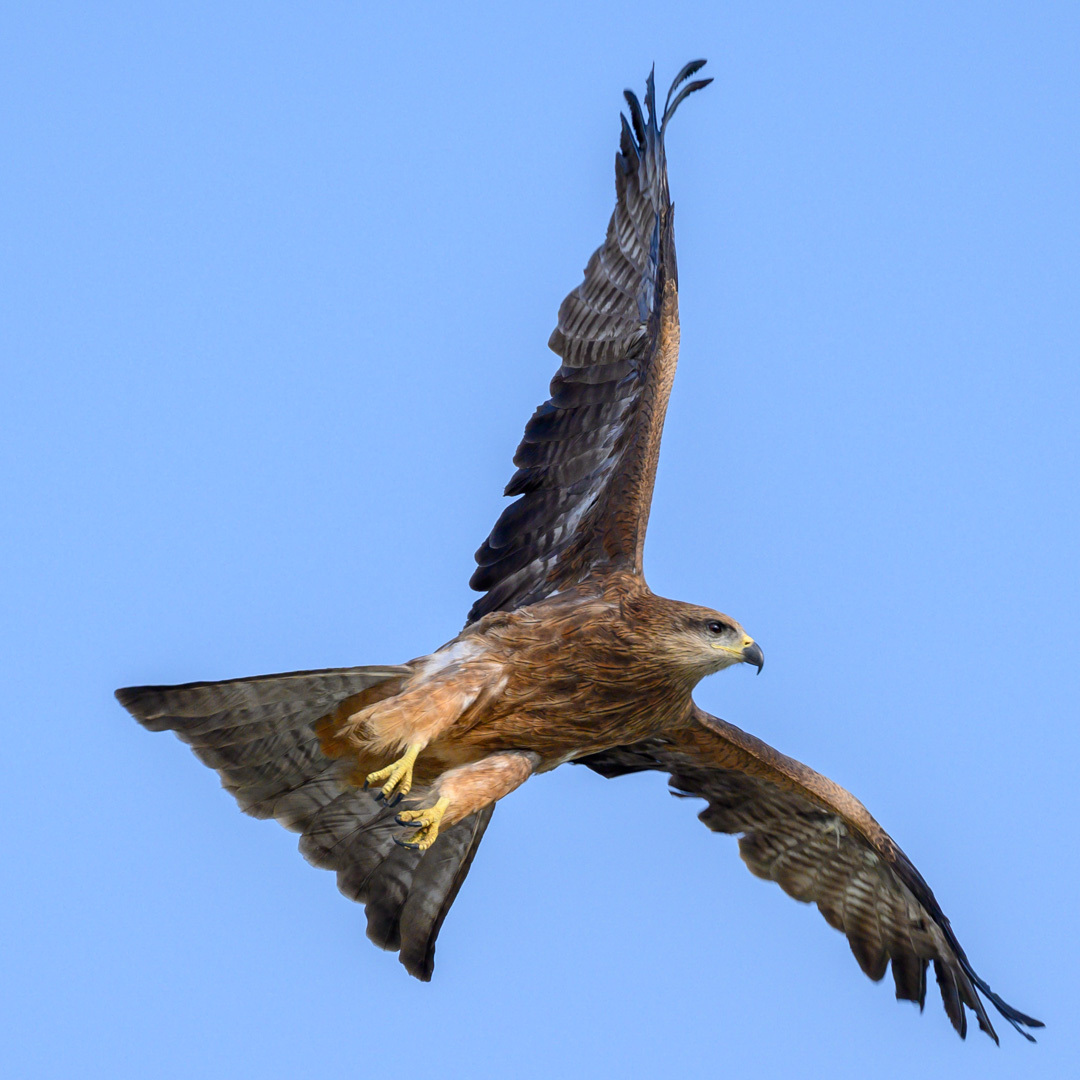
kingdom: Animalia
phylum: Chordata
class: Aves
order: Accipitriformes
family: Accipitridae
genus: Milvus
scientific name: Milvus migrans
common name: Black kite
